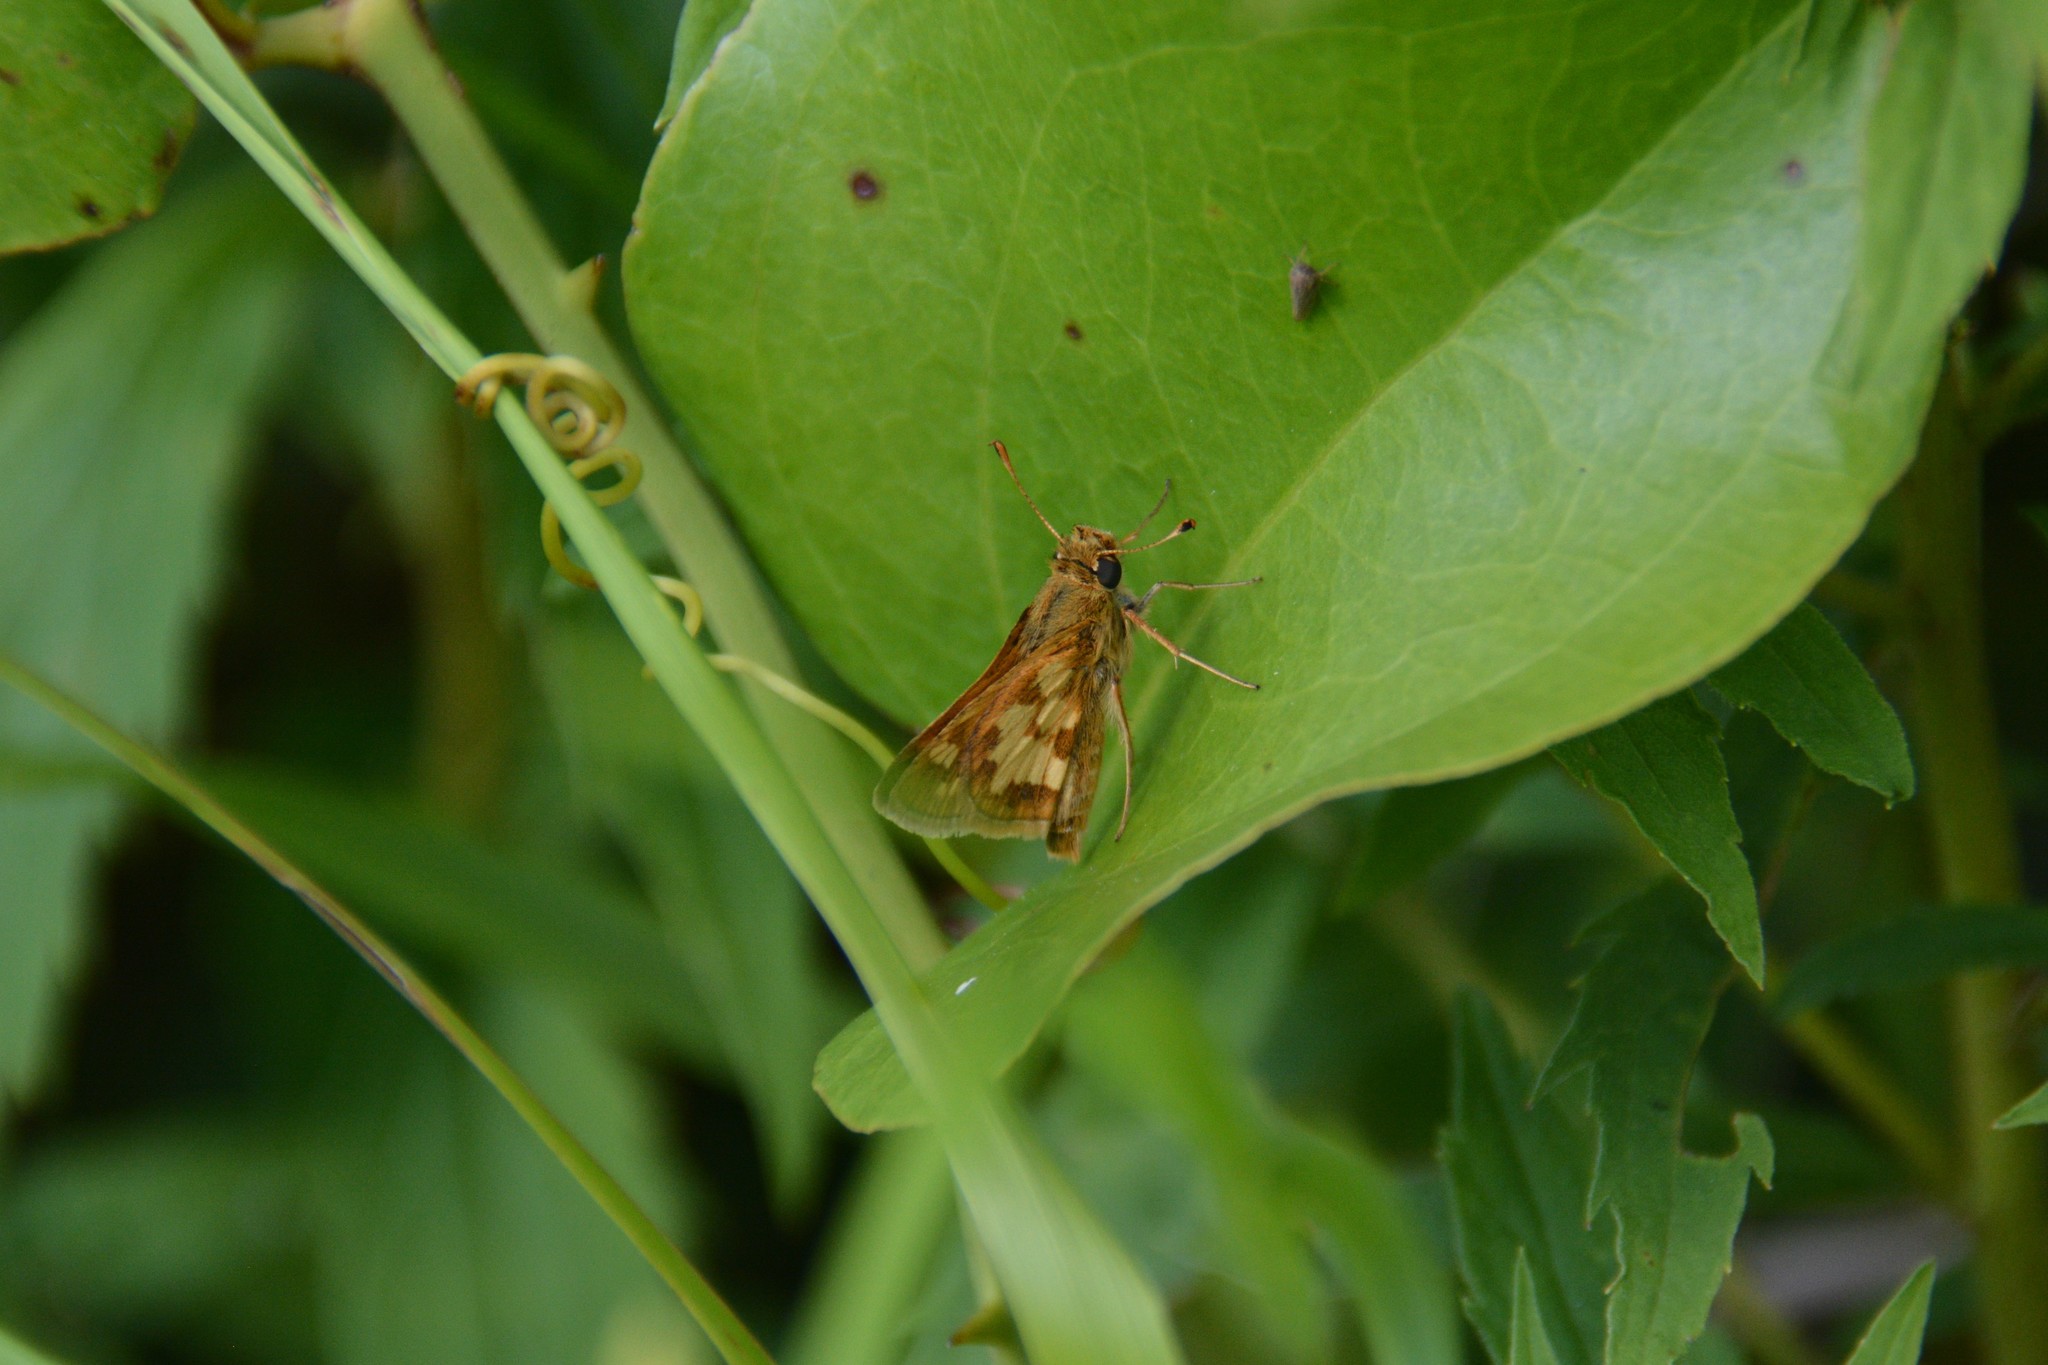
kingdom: Animalia
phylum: Arthropoda
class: Insecta
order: Lepidoptera
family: Hesperiidae
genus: Polites
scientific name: Polites coras
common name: Peck's skipper
